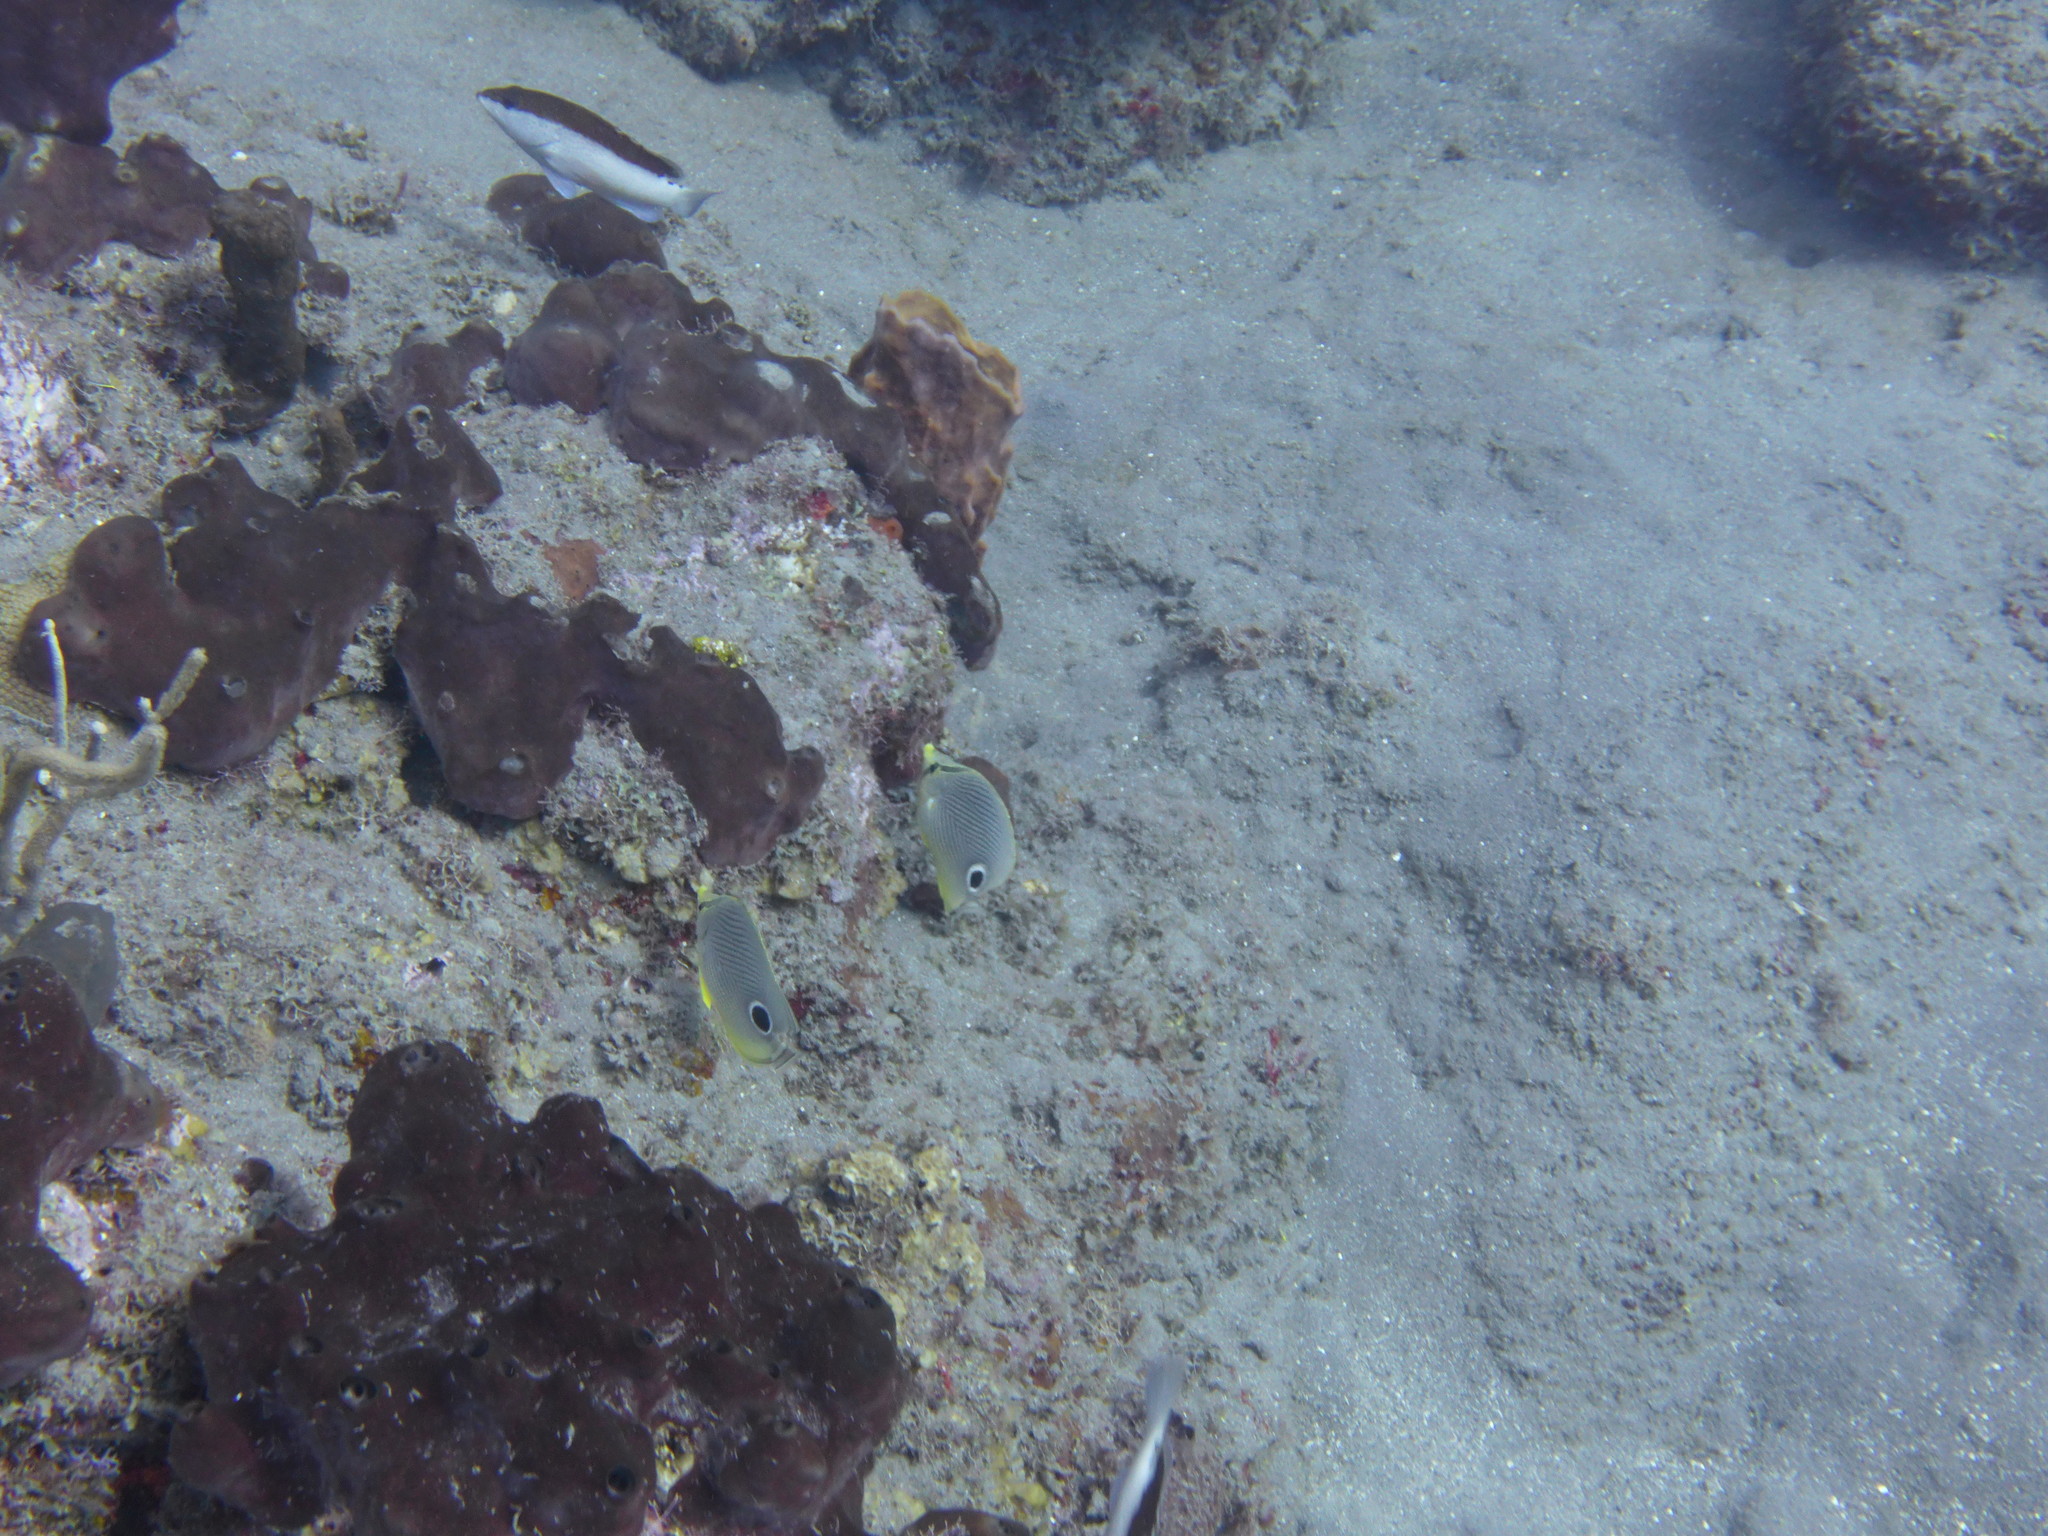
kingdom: Animalia
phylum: Chordata
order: Perciformes
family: Chaetodontidae
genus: Chaetodon
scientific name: Chaetodon capistratus
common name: Kete
